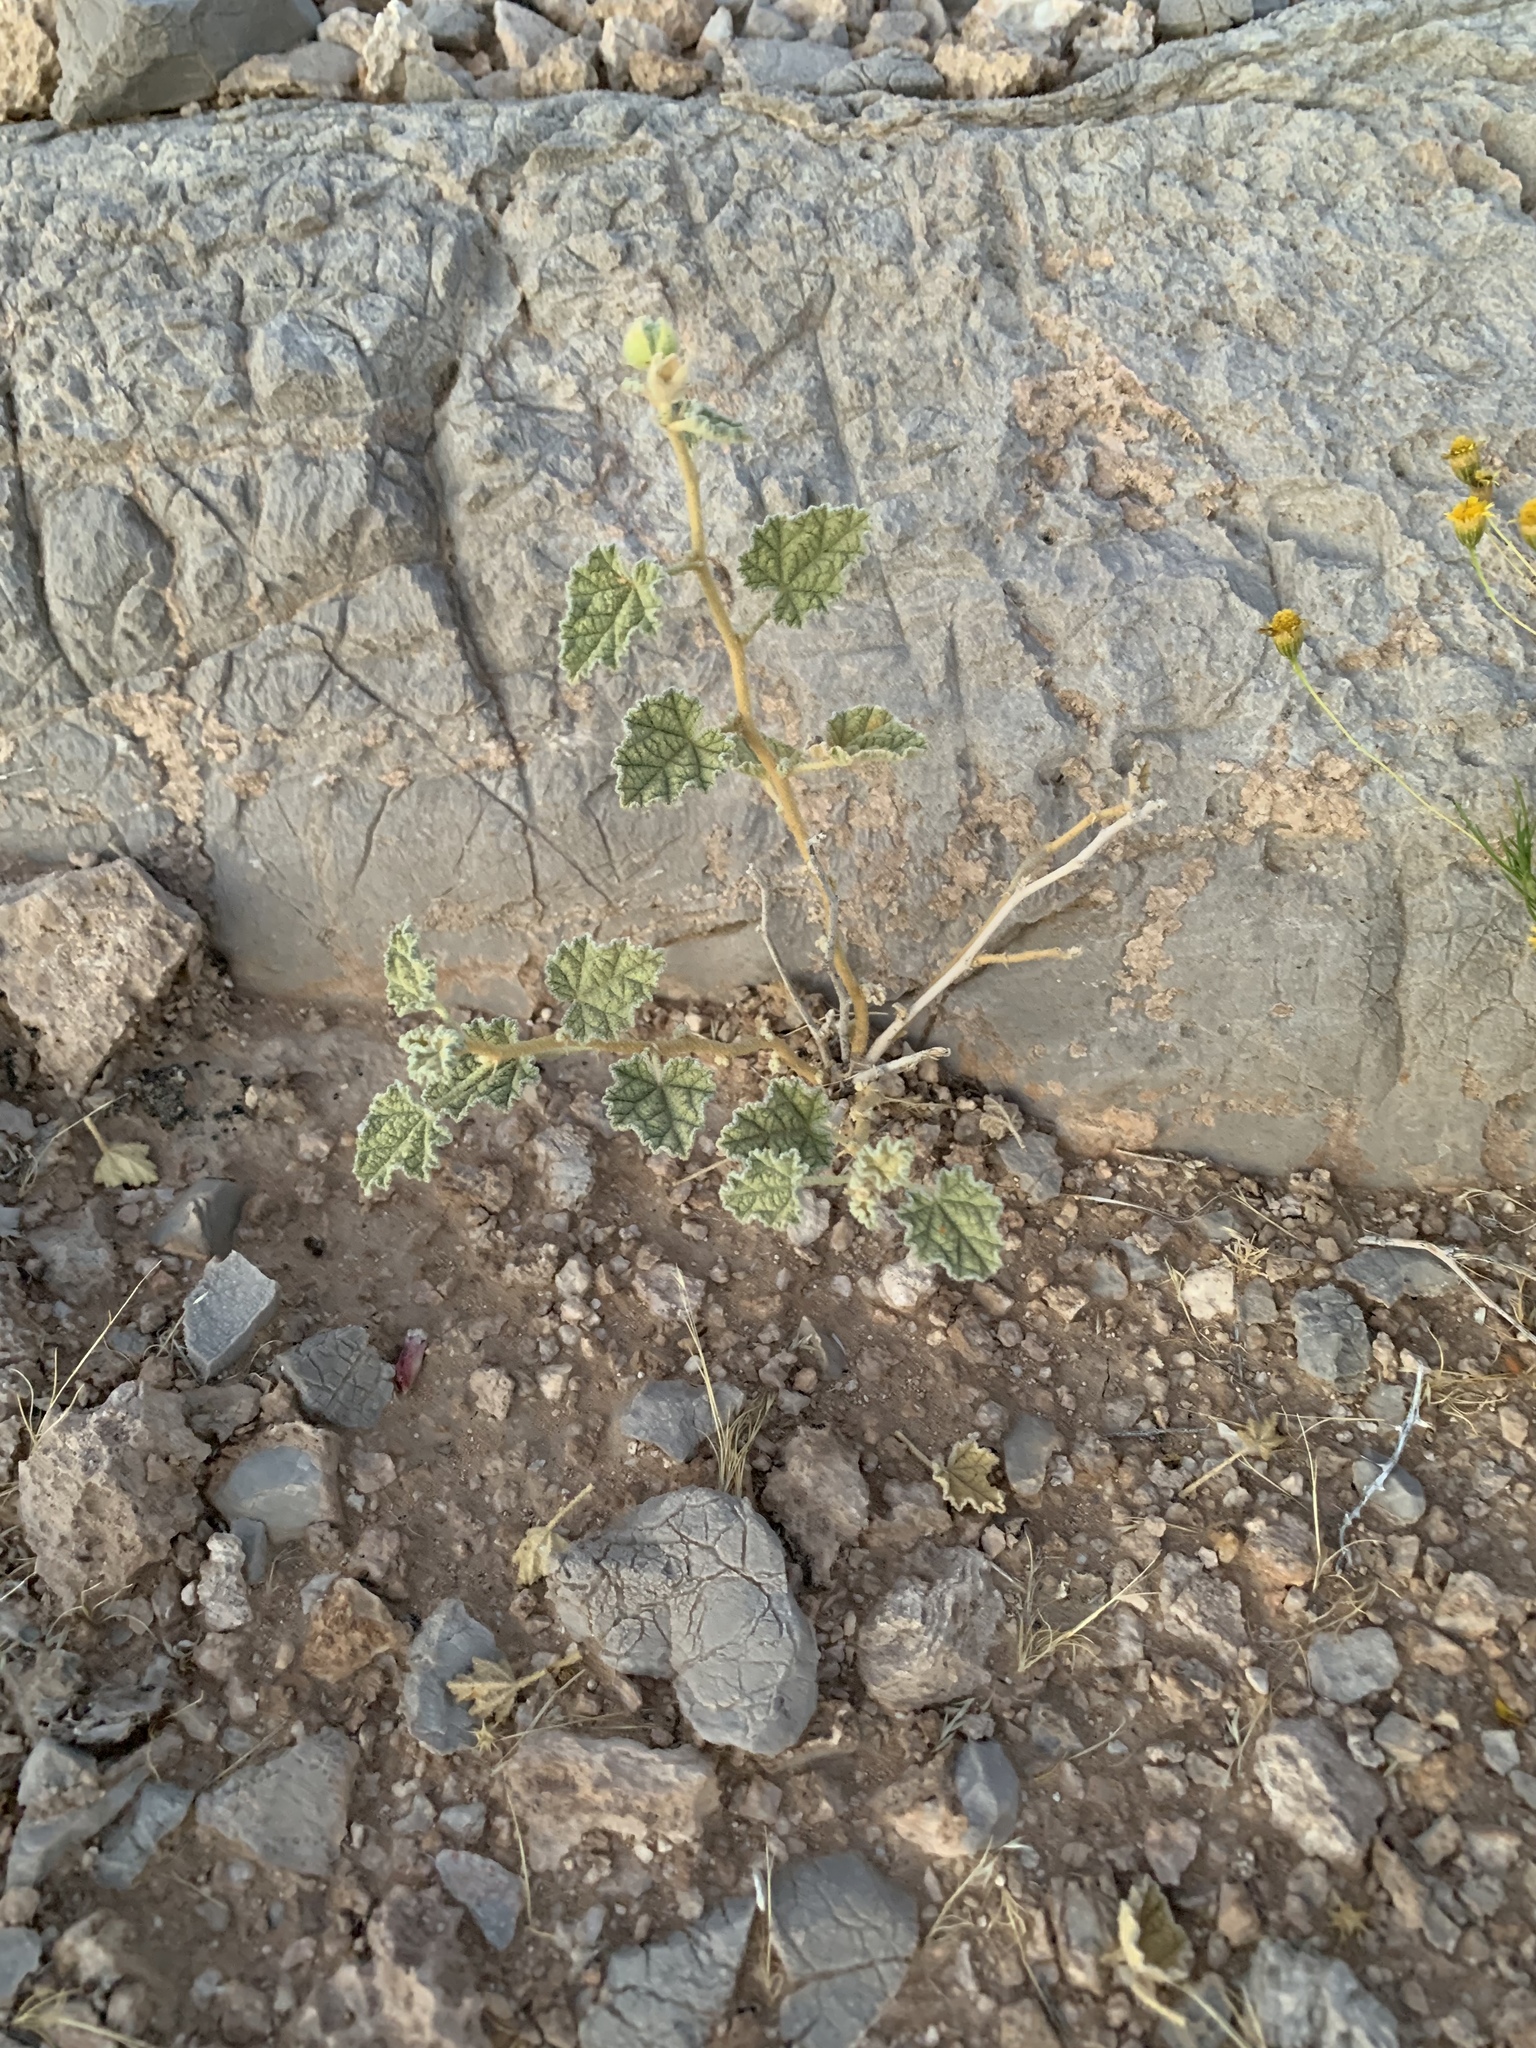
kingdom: Plantae
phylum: Tracheophyta
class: Magnoliopsida
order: Malvales
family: Malvaceae
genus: Sphaeralcea
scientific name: Sphaeralcea ambigua
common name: Apricot globe-mallow
